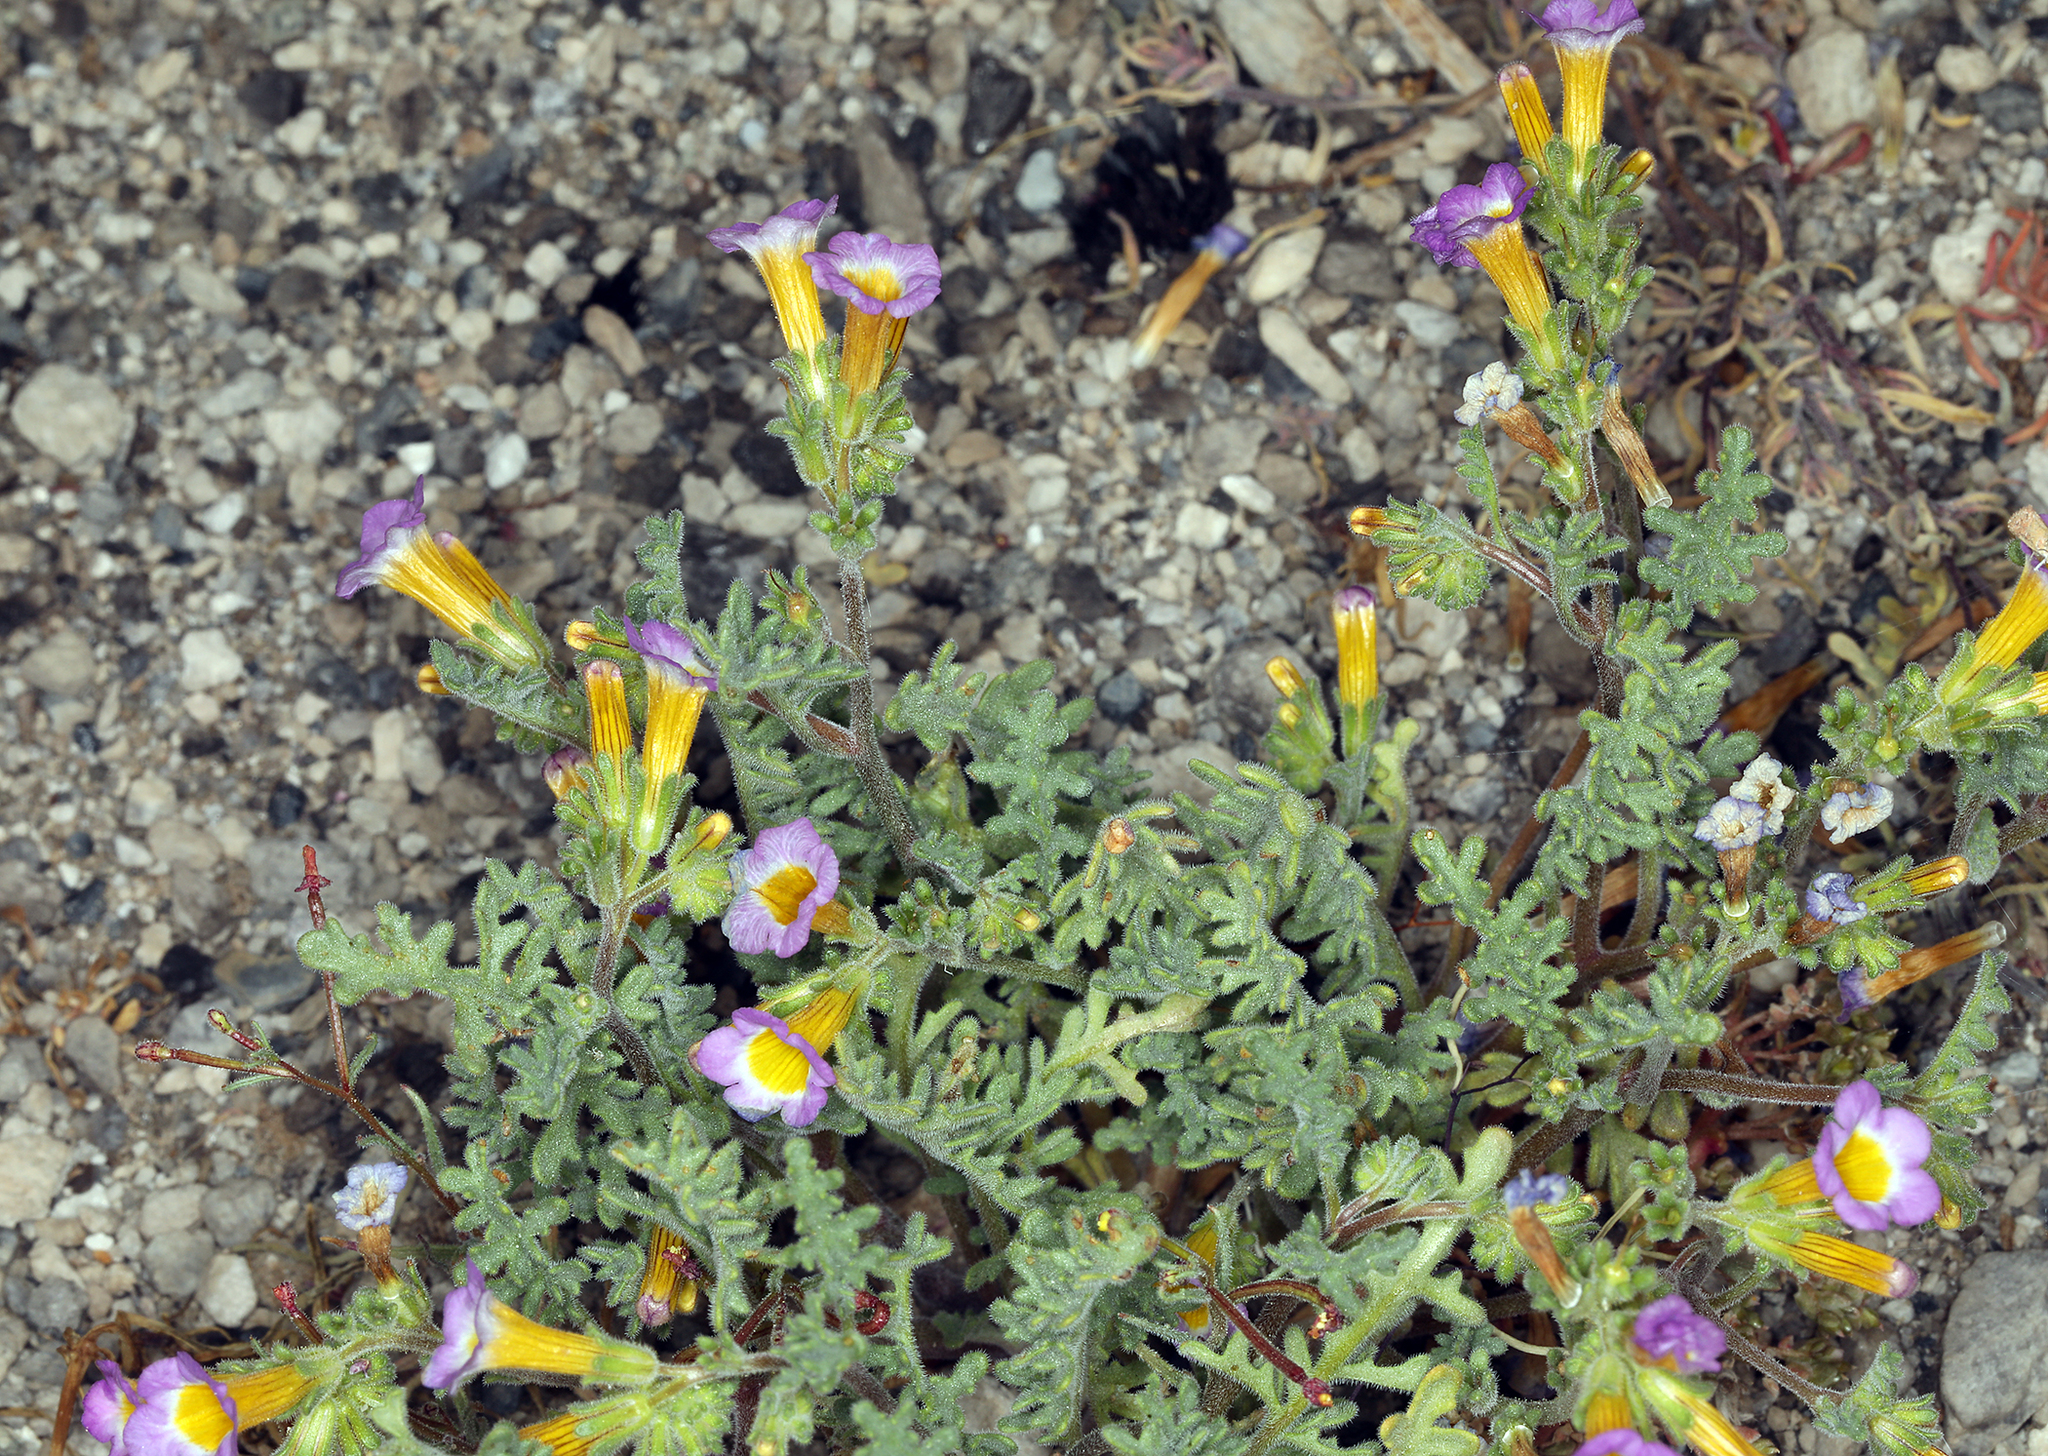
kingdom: Plantae
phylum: Tracheophyta
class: Magnoliopsida
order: Boraginales
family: Hydrophyllaceae
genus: Phacelia
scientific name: Phacelia bicolor
